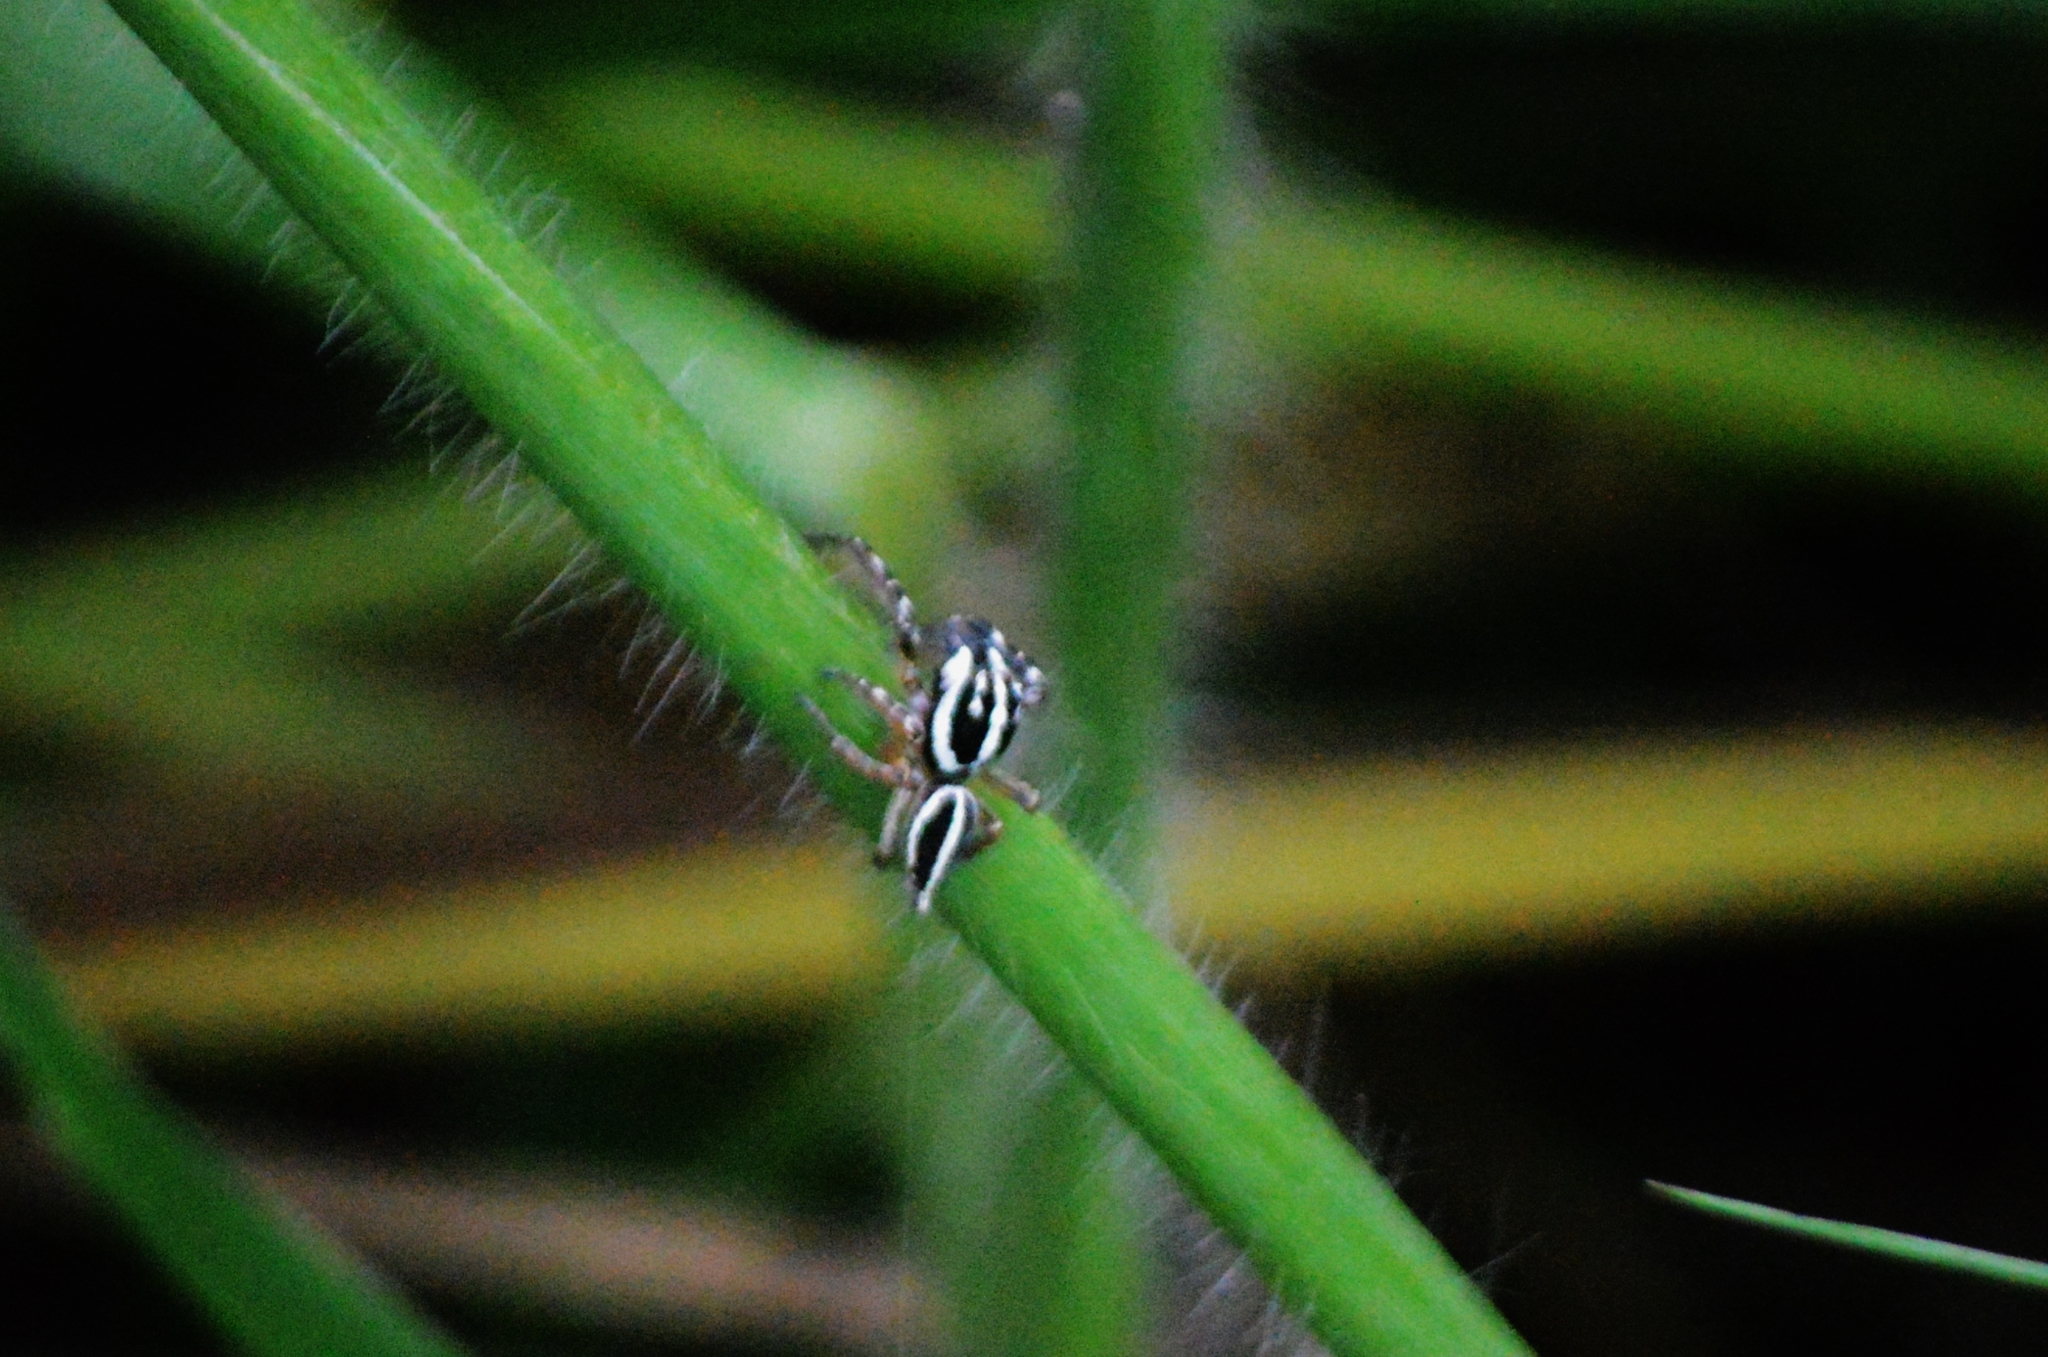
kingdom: Animalia
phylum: Arthropoda
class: Arachnida
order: Araneae
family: Salticidae
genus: Freya
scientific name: Freya nigrotaeniata
